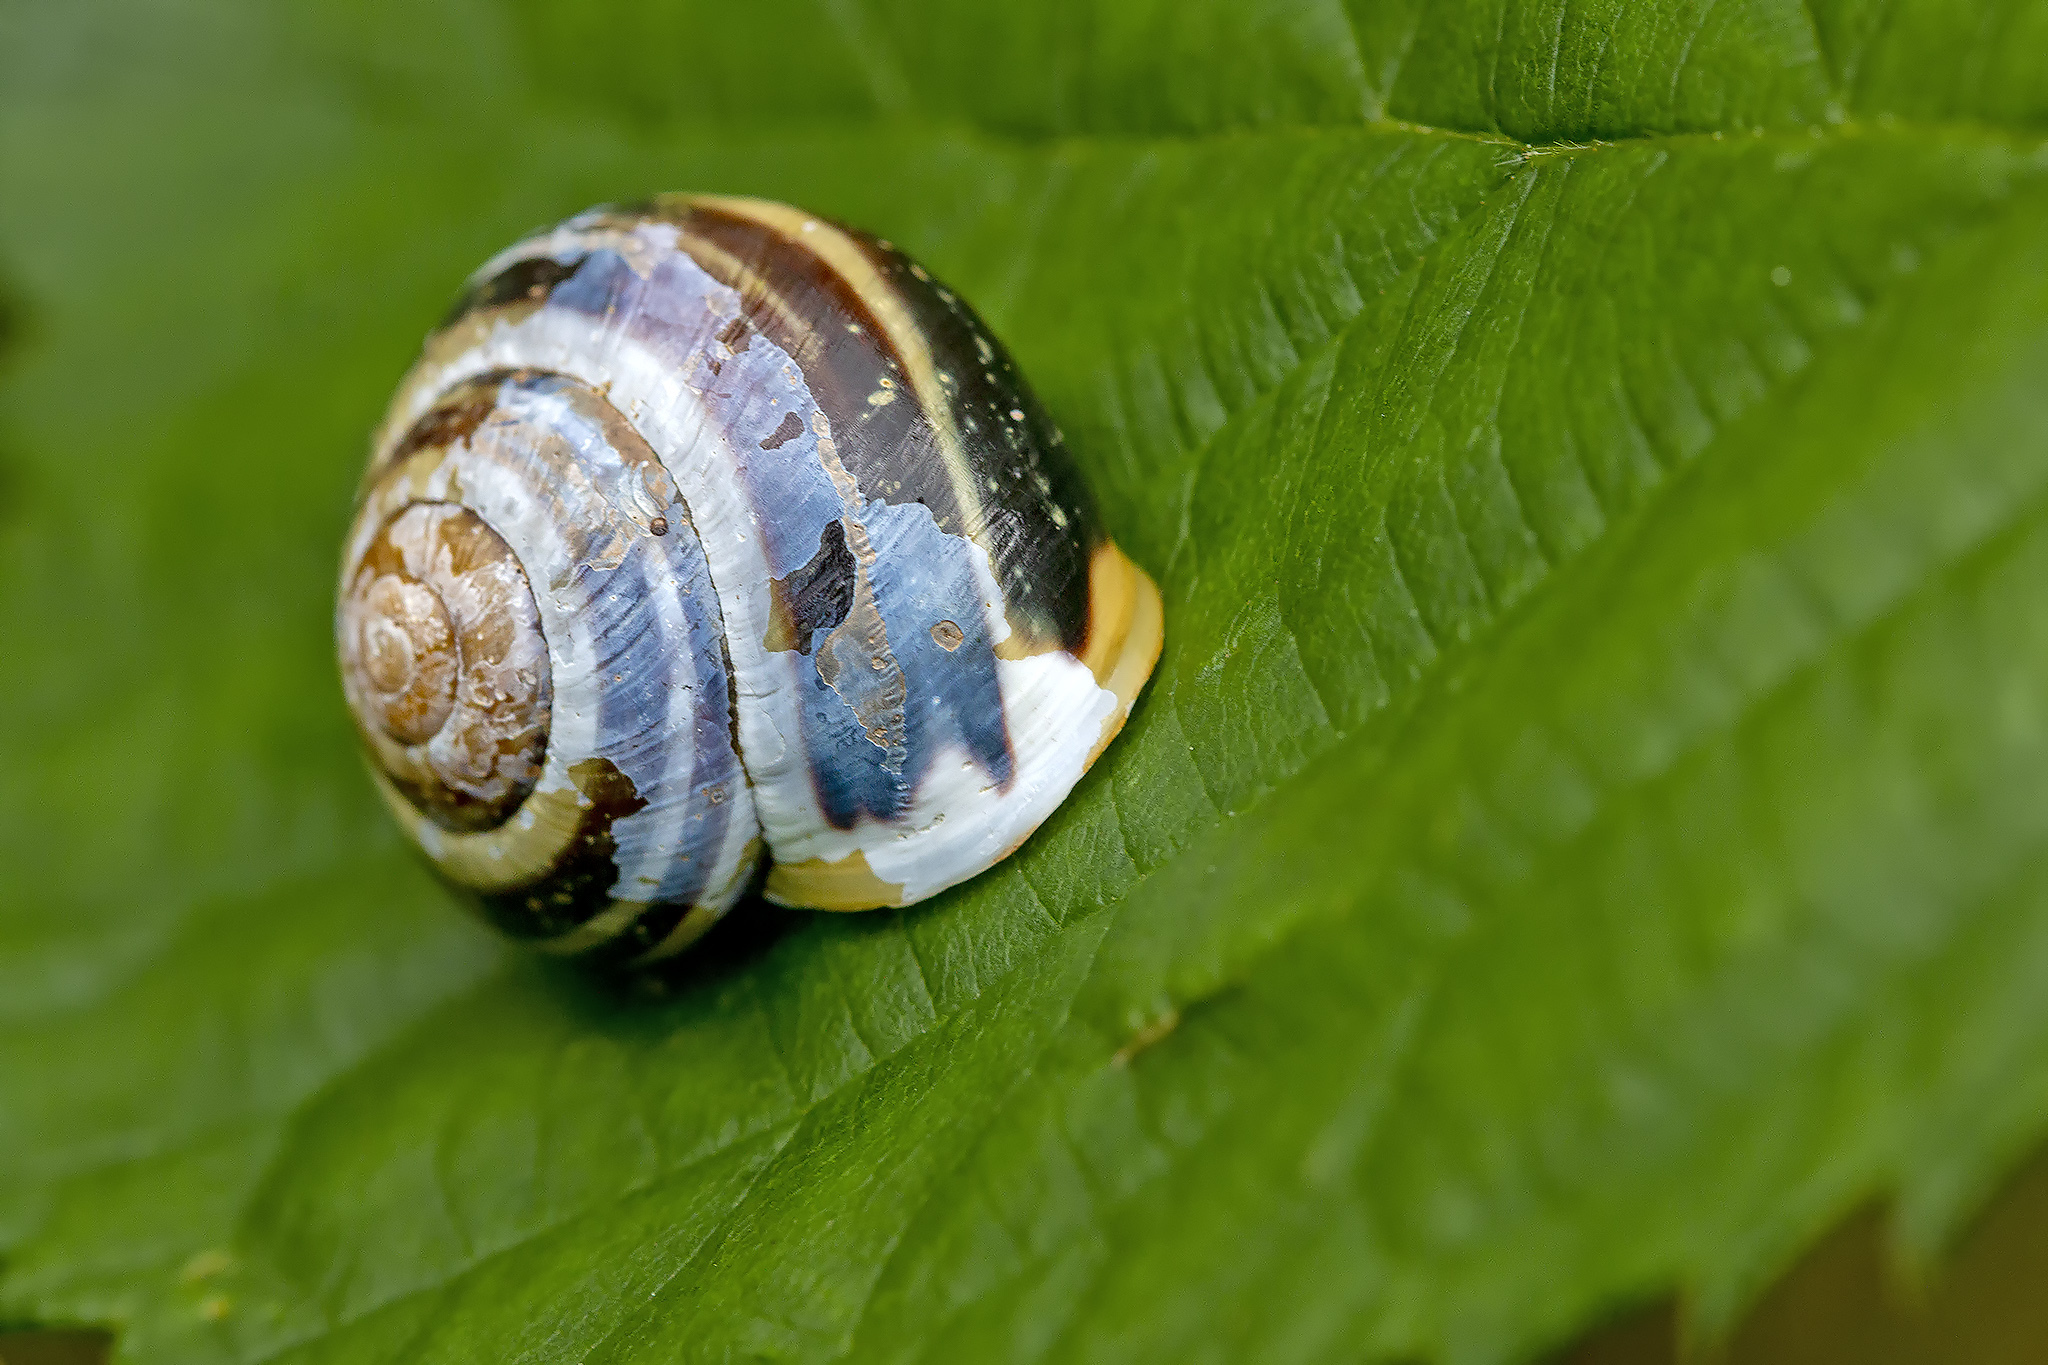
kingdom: Animalia
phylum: Mollusca
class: Gastropoda
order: Stylommatophora
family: Helicidae
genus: Cepaea
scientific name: Cepaea hortensis
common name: White-lip gardensnail
